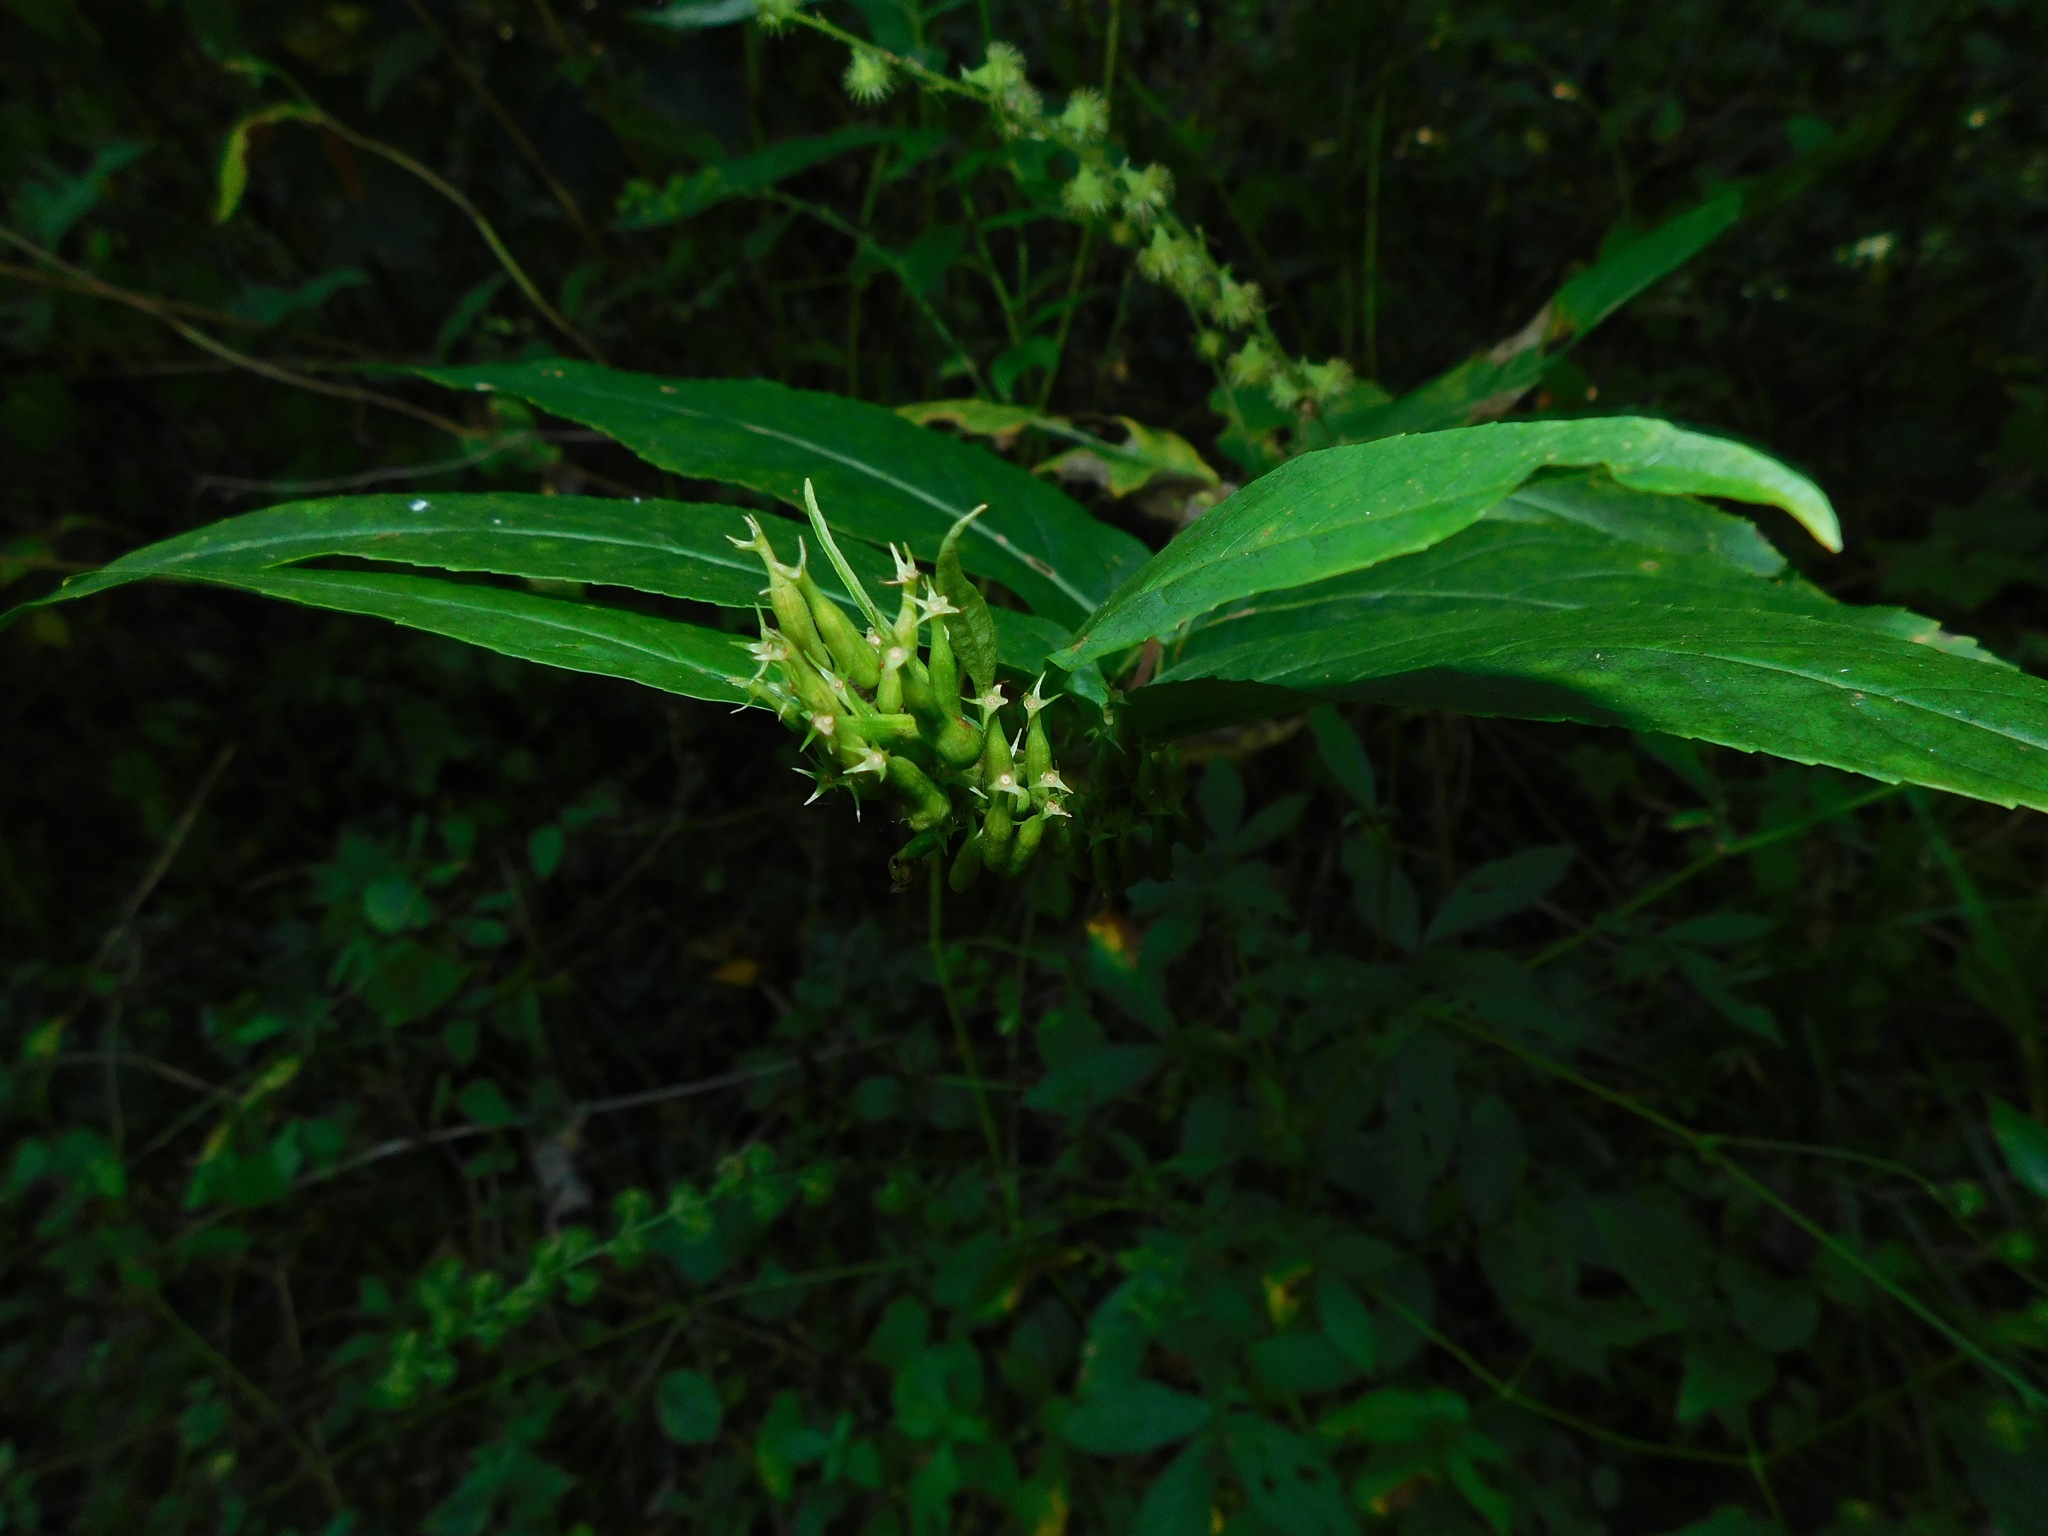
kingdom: Plantae
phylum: Tracheophyta
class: Magnoliopsida
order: Dipsacales
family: Caprifoliaceae
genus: Diervilla
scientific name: Diervilla sessilifolia
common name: Bush-honeysuckle
